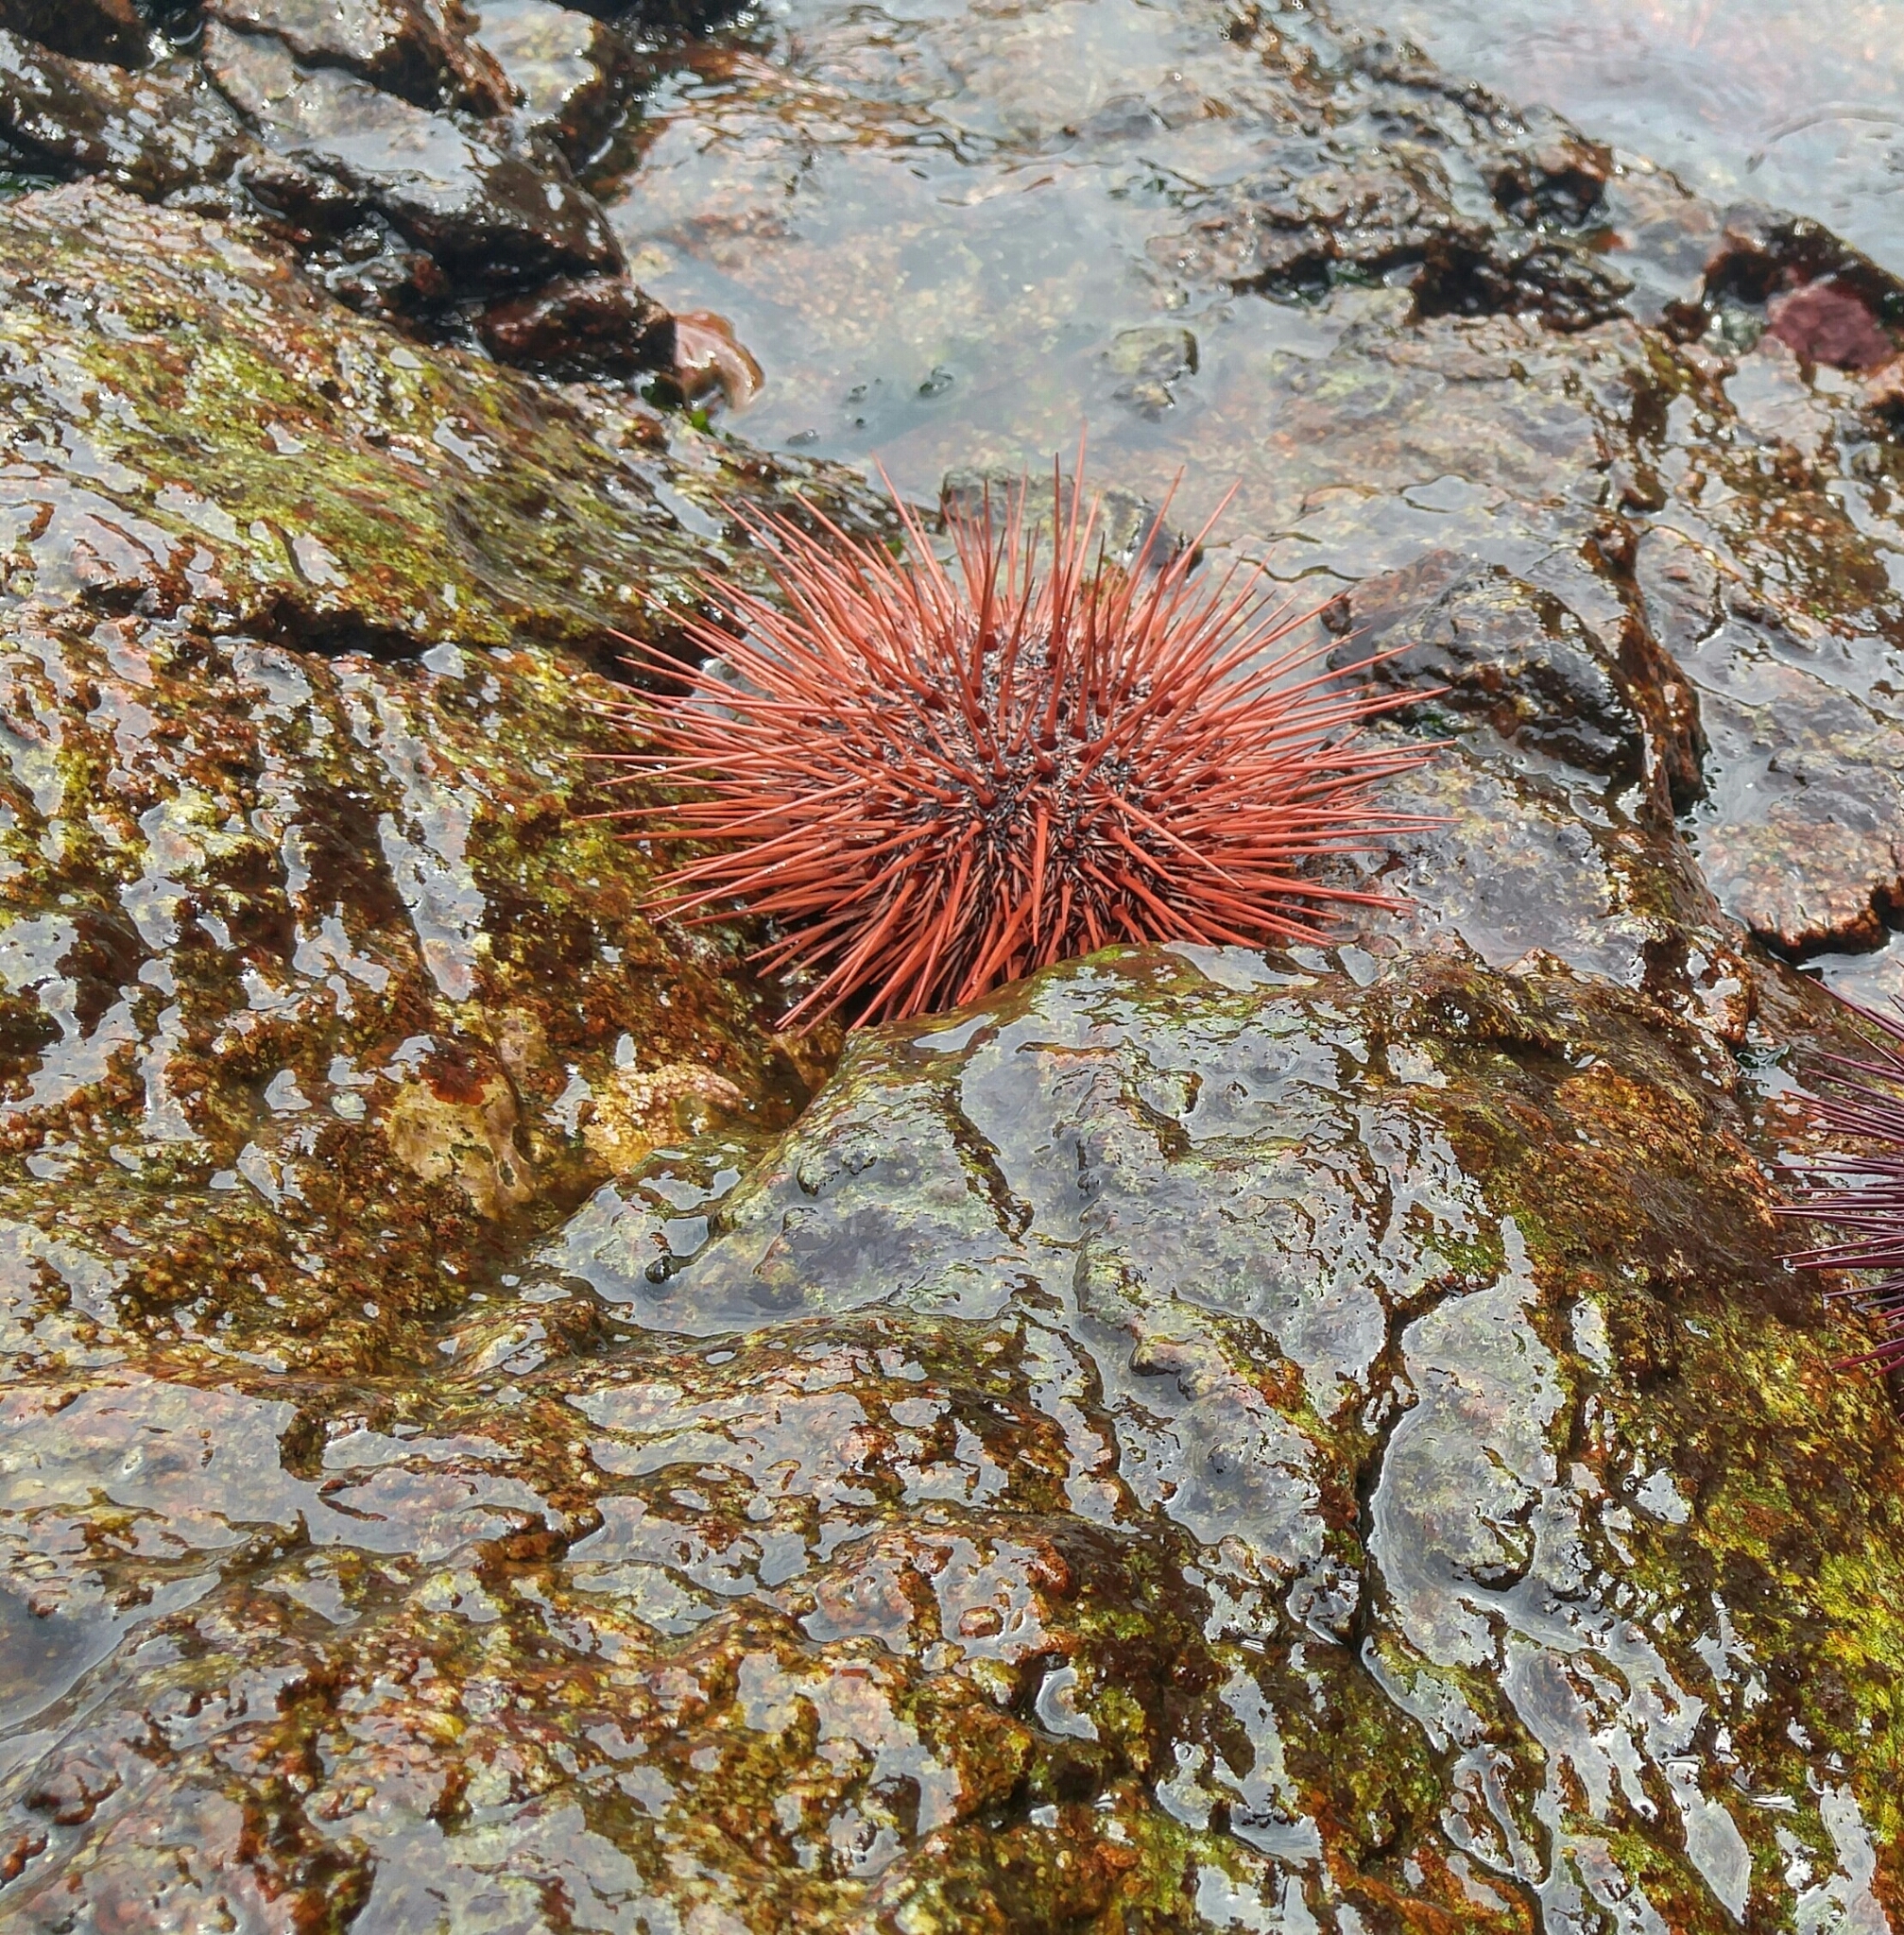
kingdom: Animalia
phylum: Echinodermata
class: Echinoidea
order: Camarodonta
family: Strongylocentrotidae
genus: Mesocentrotus
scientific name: Mesocentrotus franciscanus
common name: Red sea urchin
